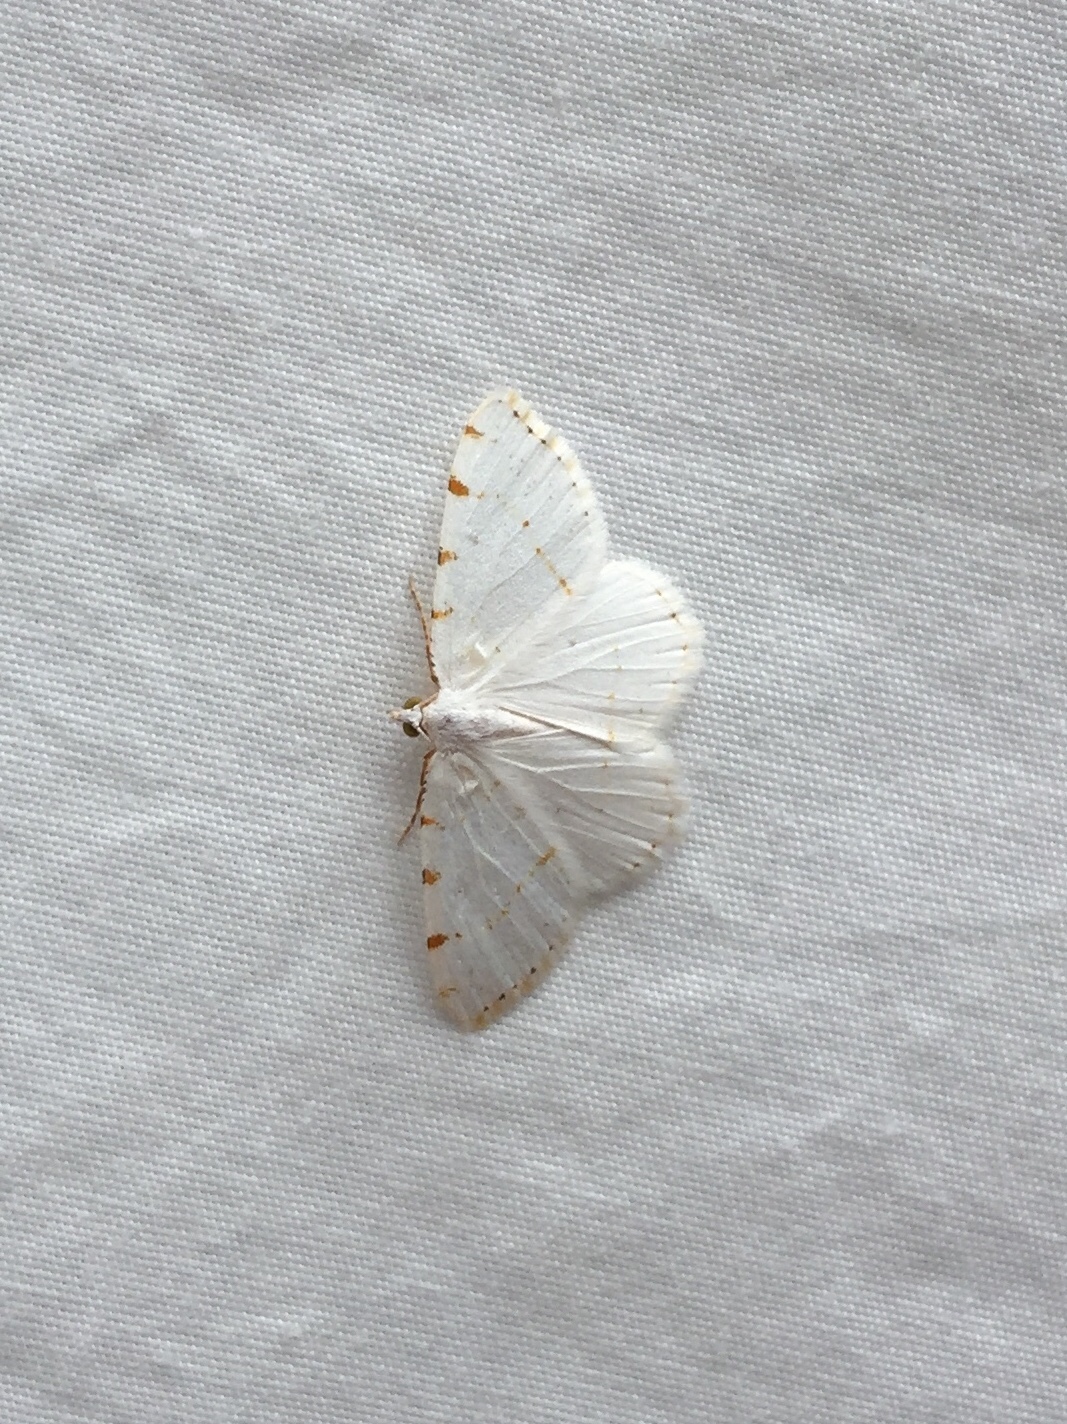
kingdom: Animalia
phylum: Arthropoda
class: Insecta
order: Lepidoptera
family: Geometridae
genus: Macaria
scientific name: Macaria pustularia
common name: Lesser maple spanworm moth
